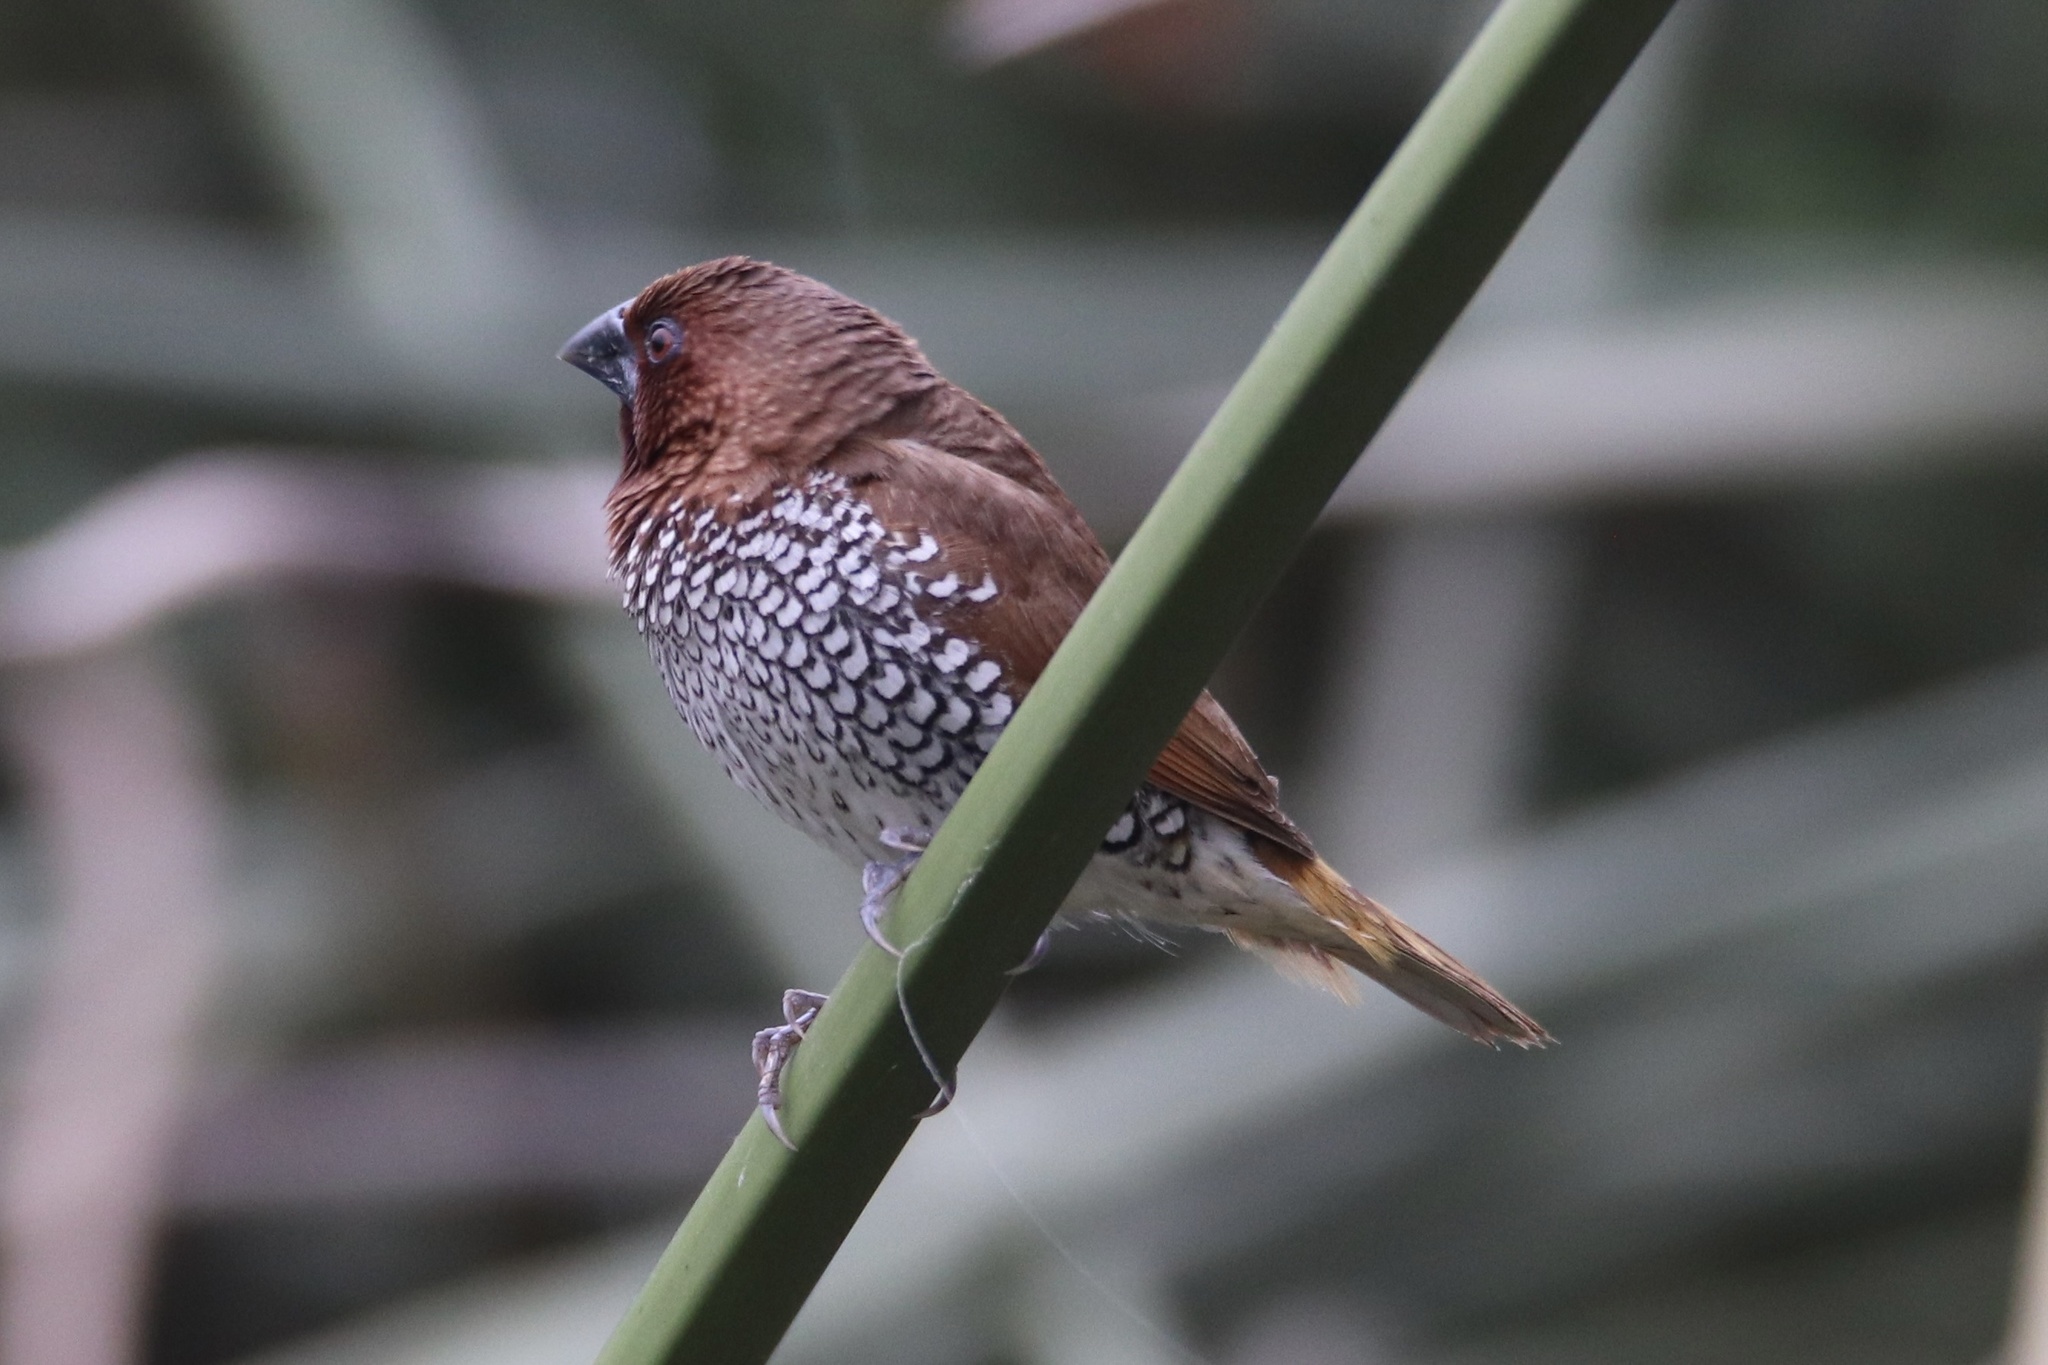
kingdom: Animalia
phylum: Chordata
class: Aves
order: Passeriformes
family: Estrildidae
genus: Lonchura
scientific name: Lonchura punctulata
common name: Scaly-breasted munia
